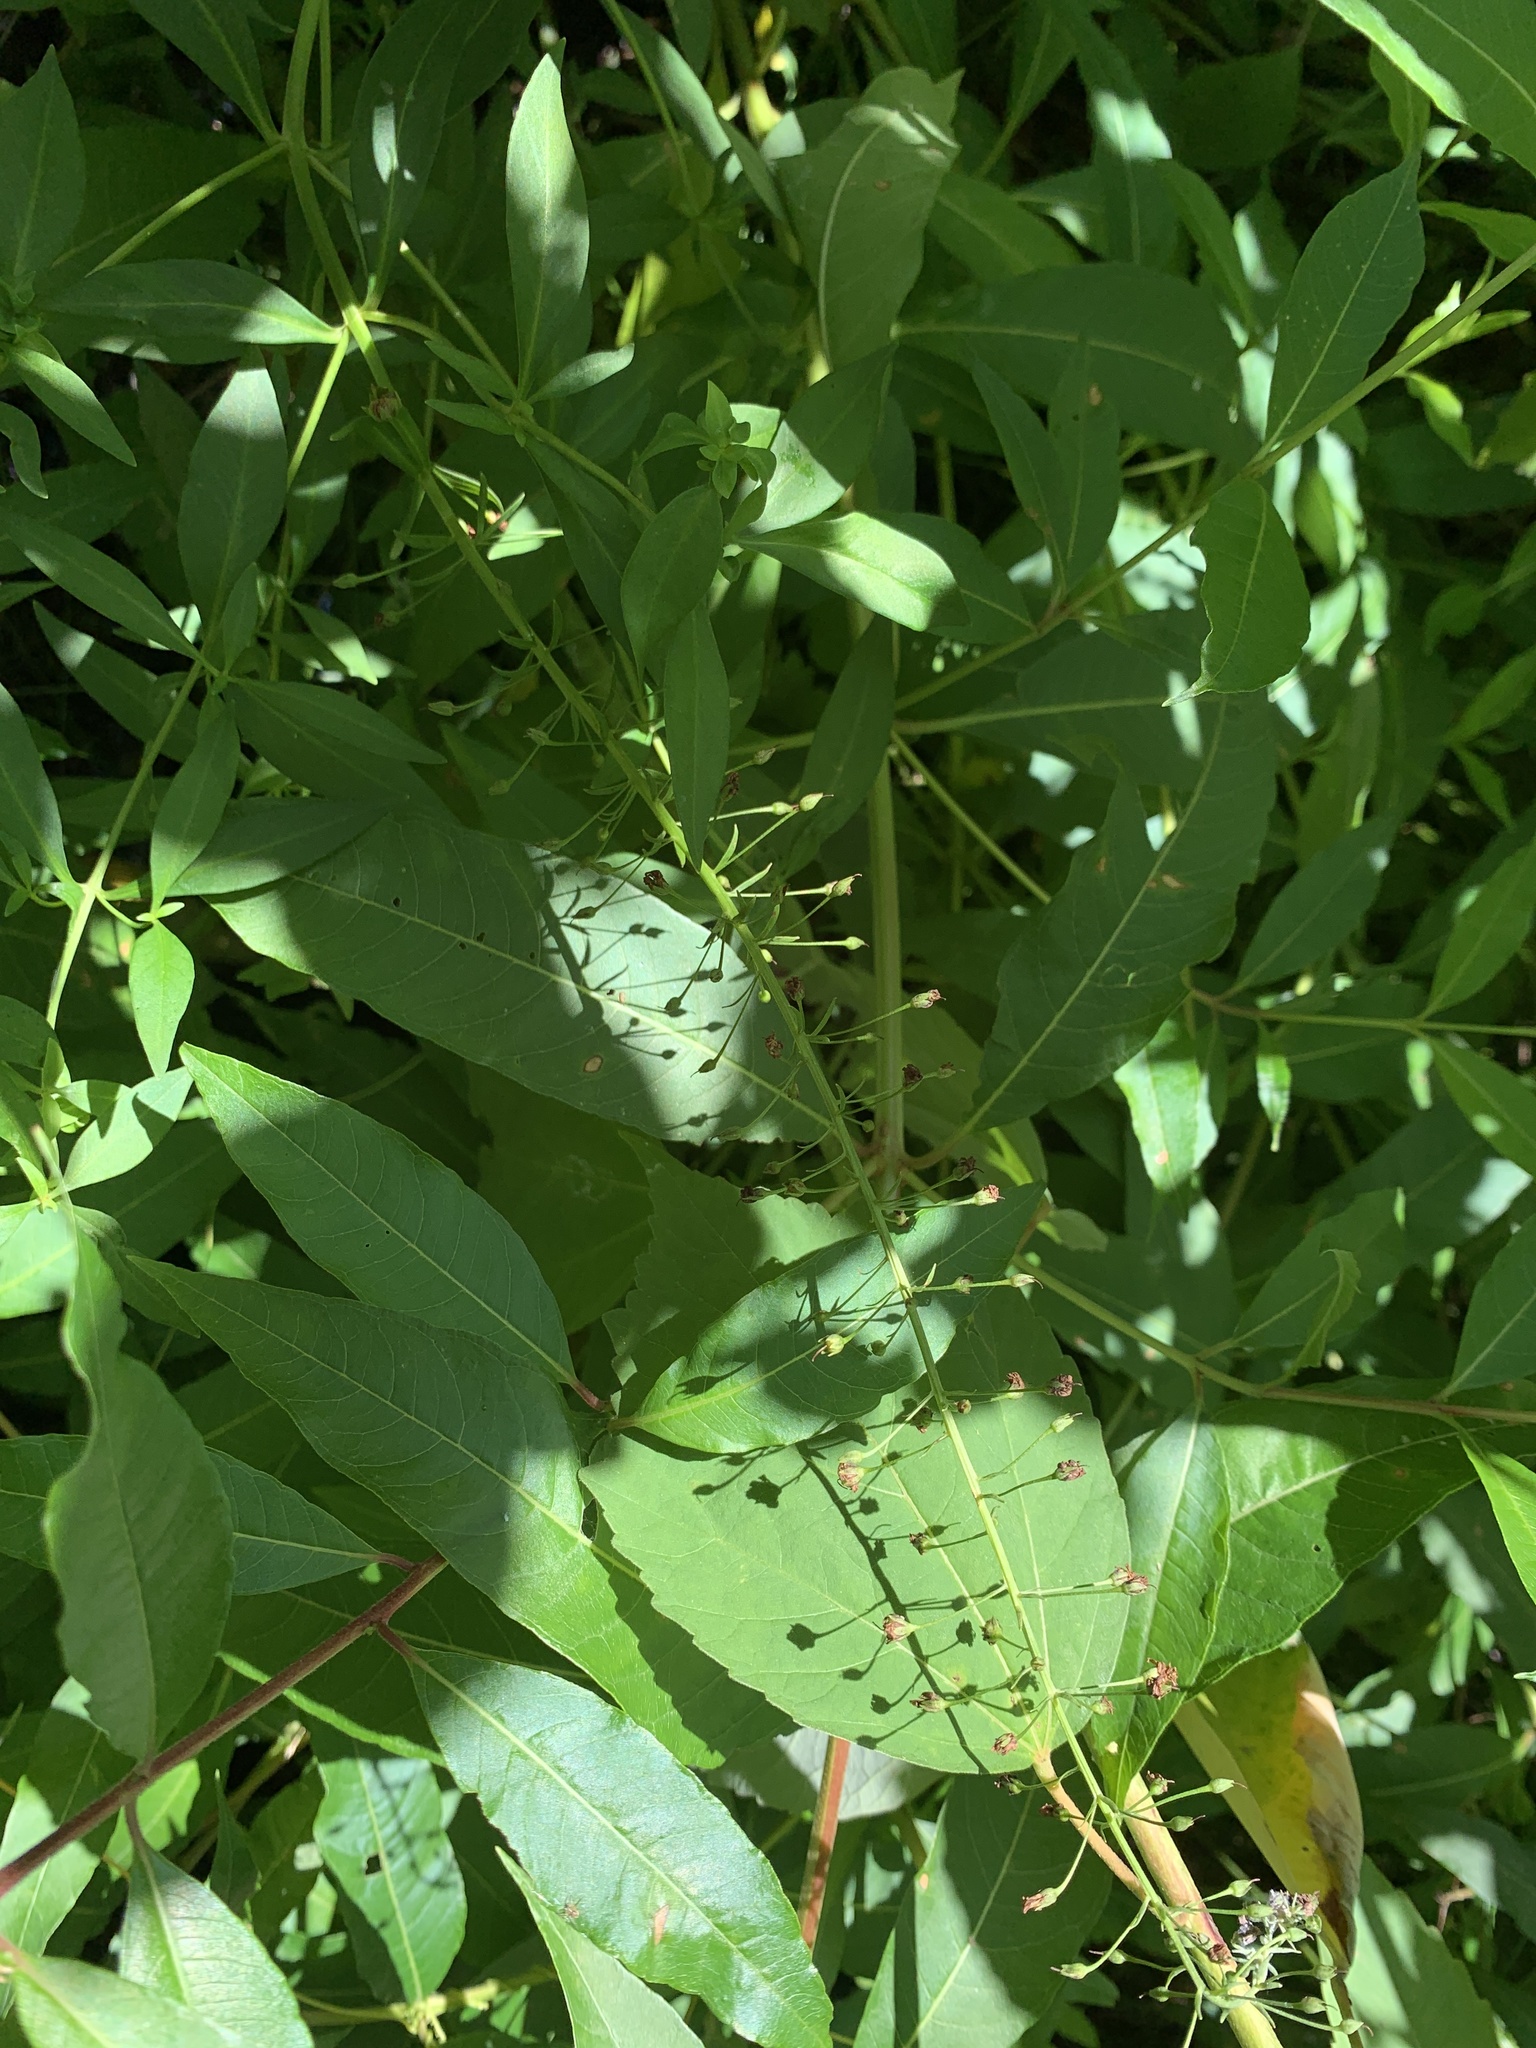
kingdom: Plantae
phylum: Tracheophyta
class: Magnoliopsida
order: Ericales
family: Primulaceae
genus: Lysimachia
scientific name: Lysimachia terrestris
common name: Lake loosestrife
